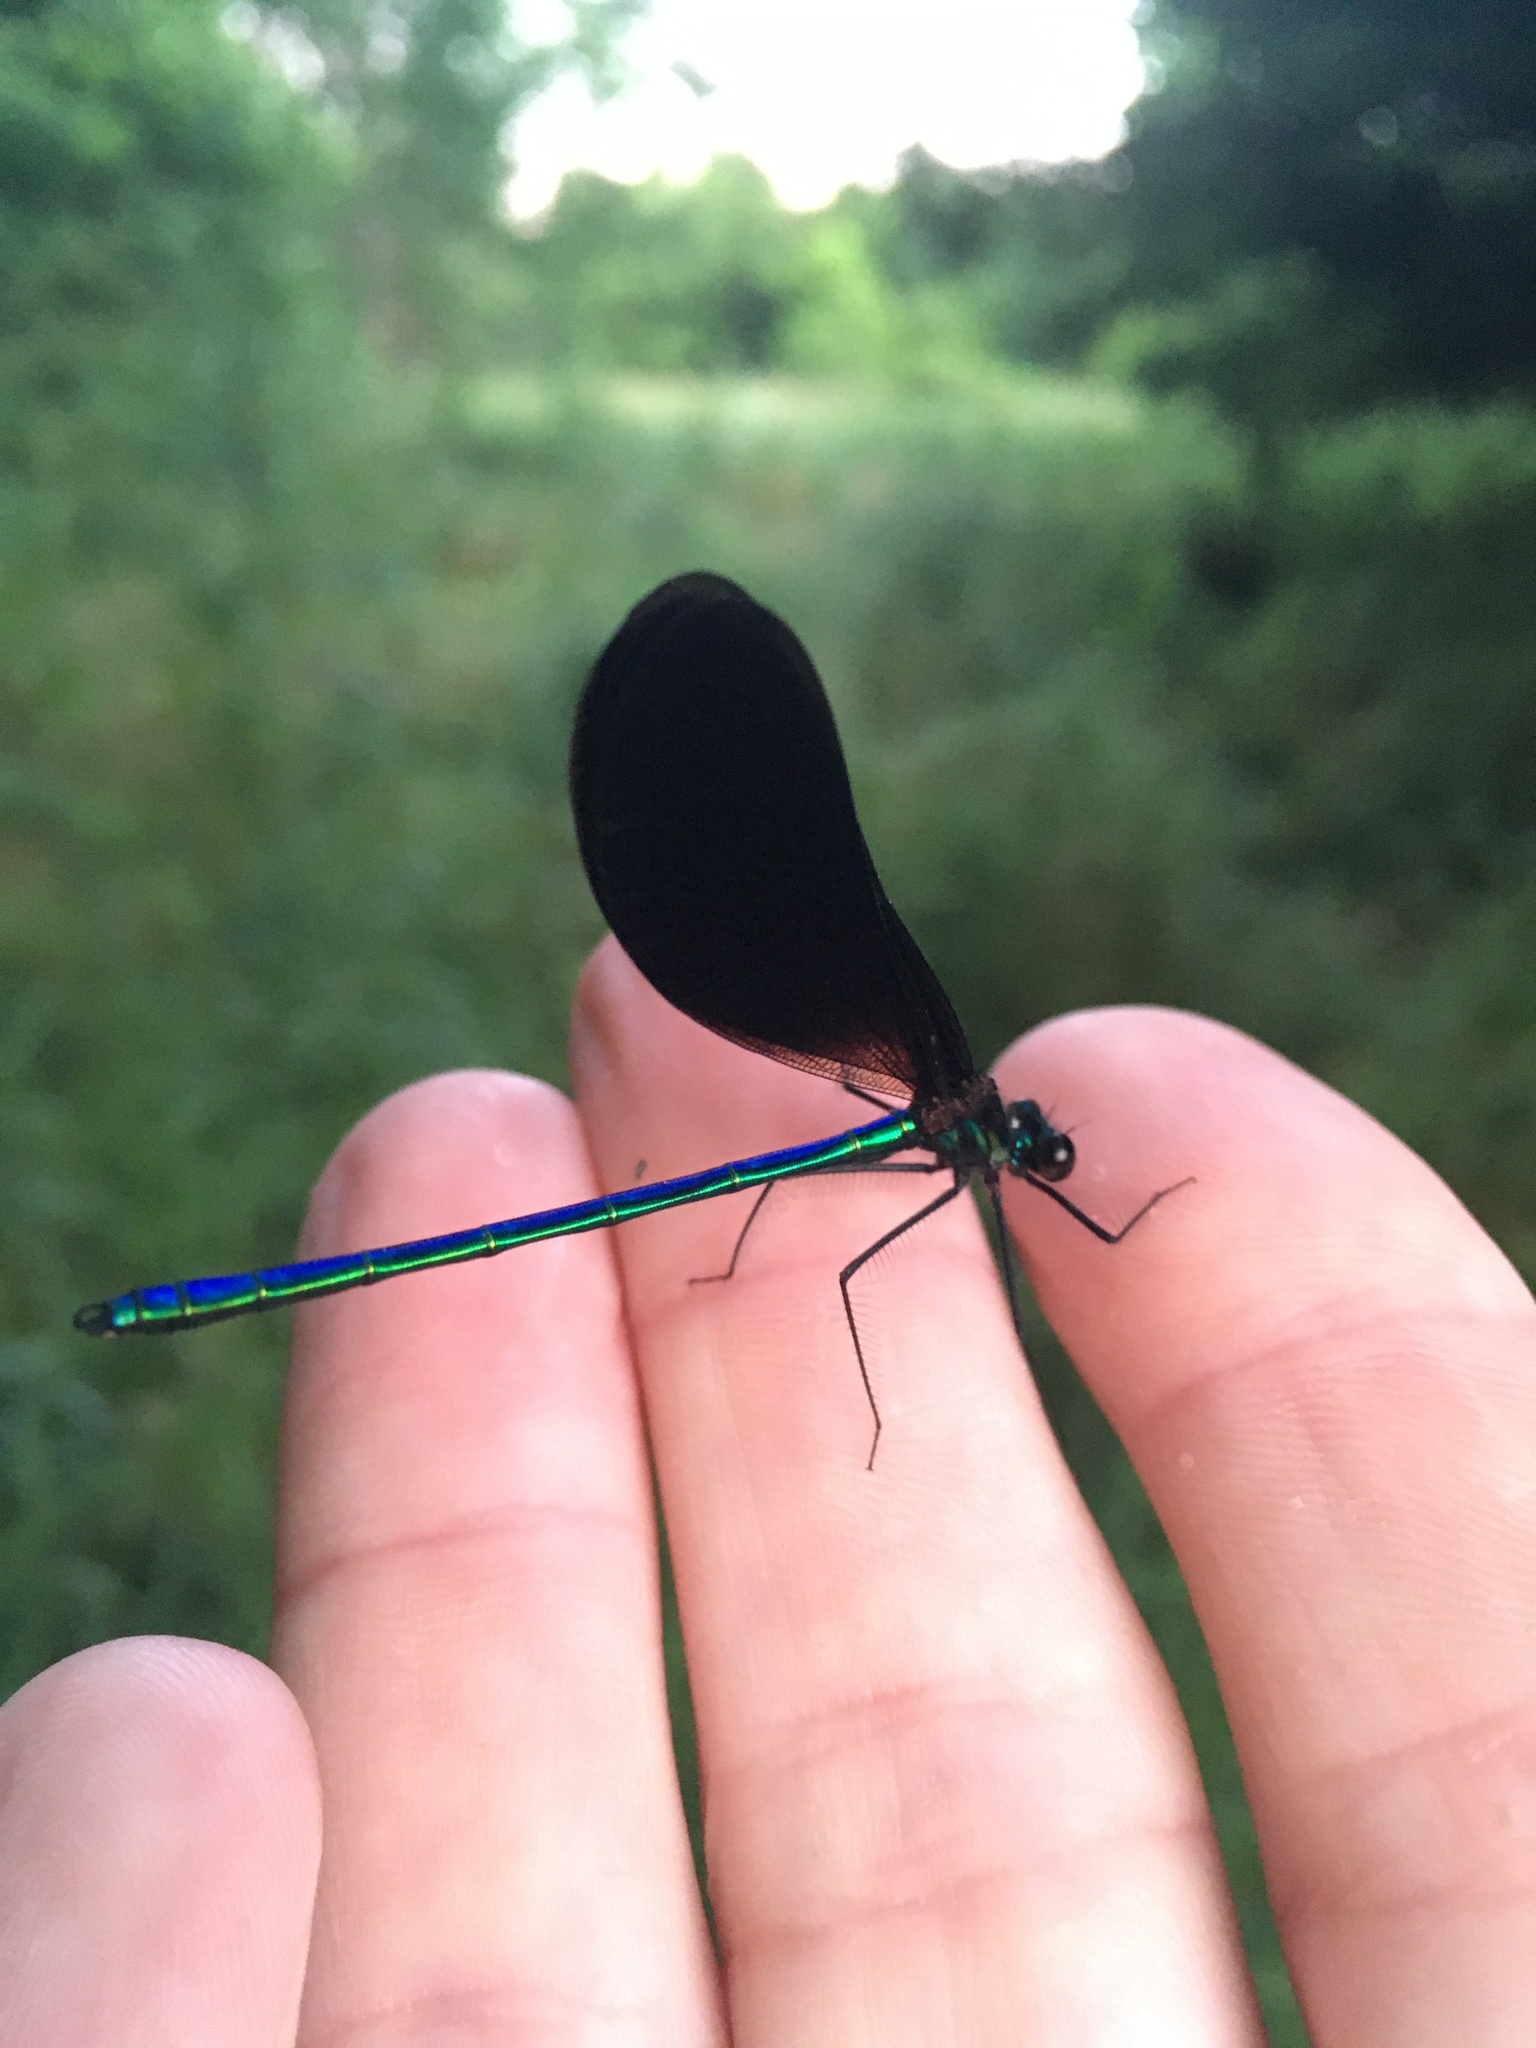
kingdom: Animalia
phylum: Arthropoda
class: Insecta
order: Odonata
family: Calopterygidae
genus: Calopteryx
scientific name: Calopteryx maculata
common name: Ebony jewelwing
